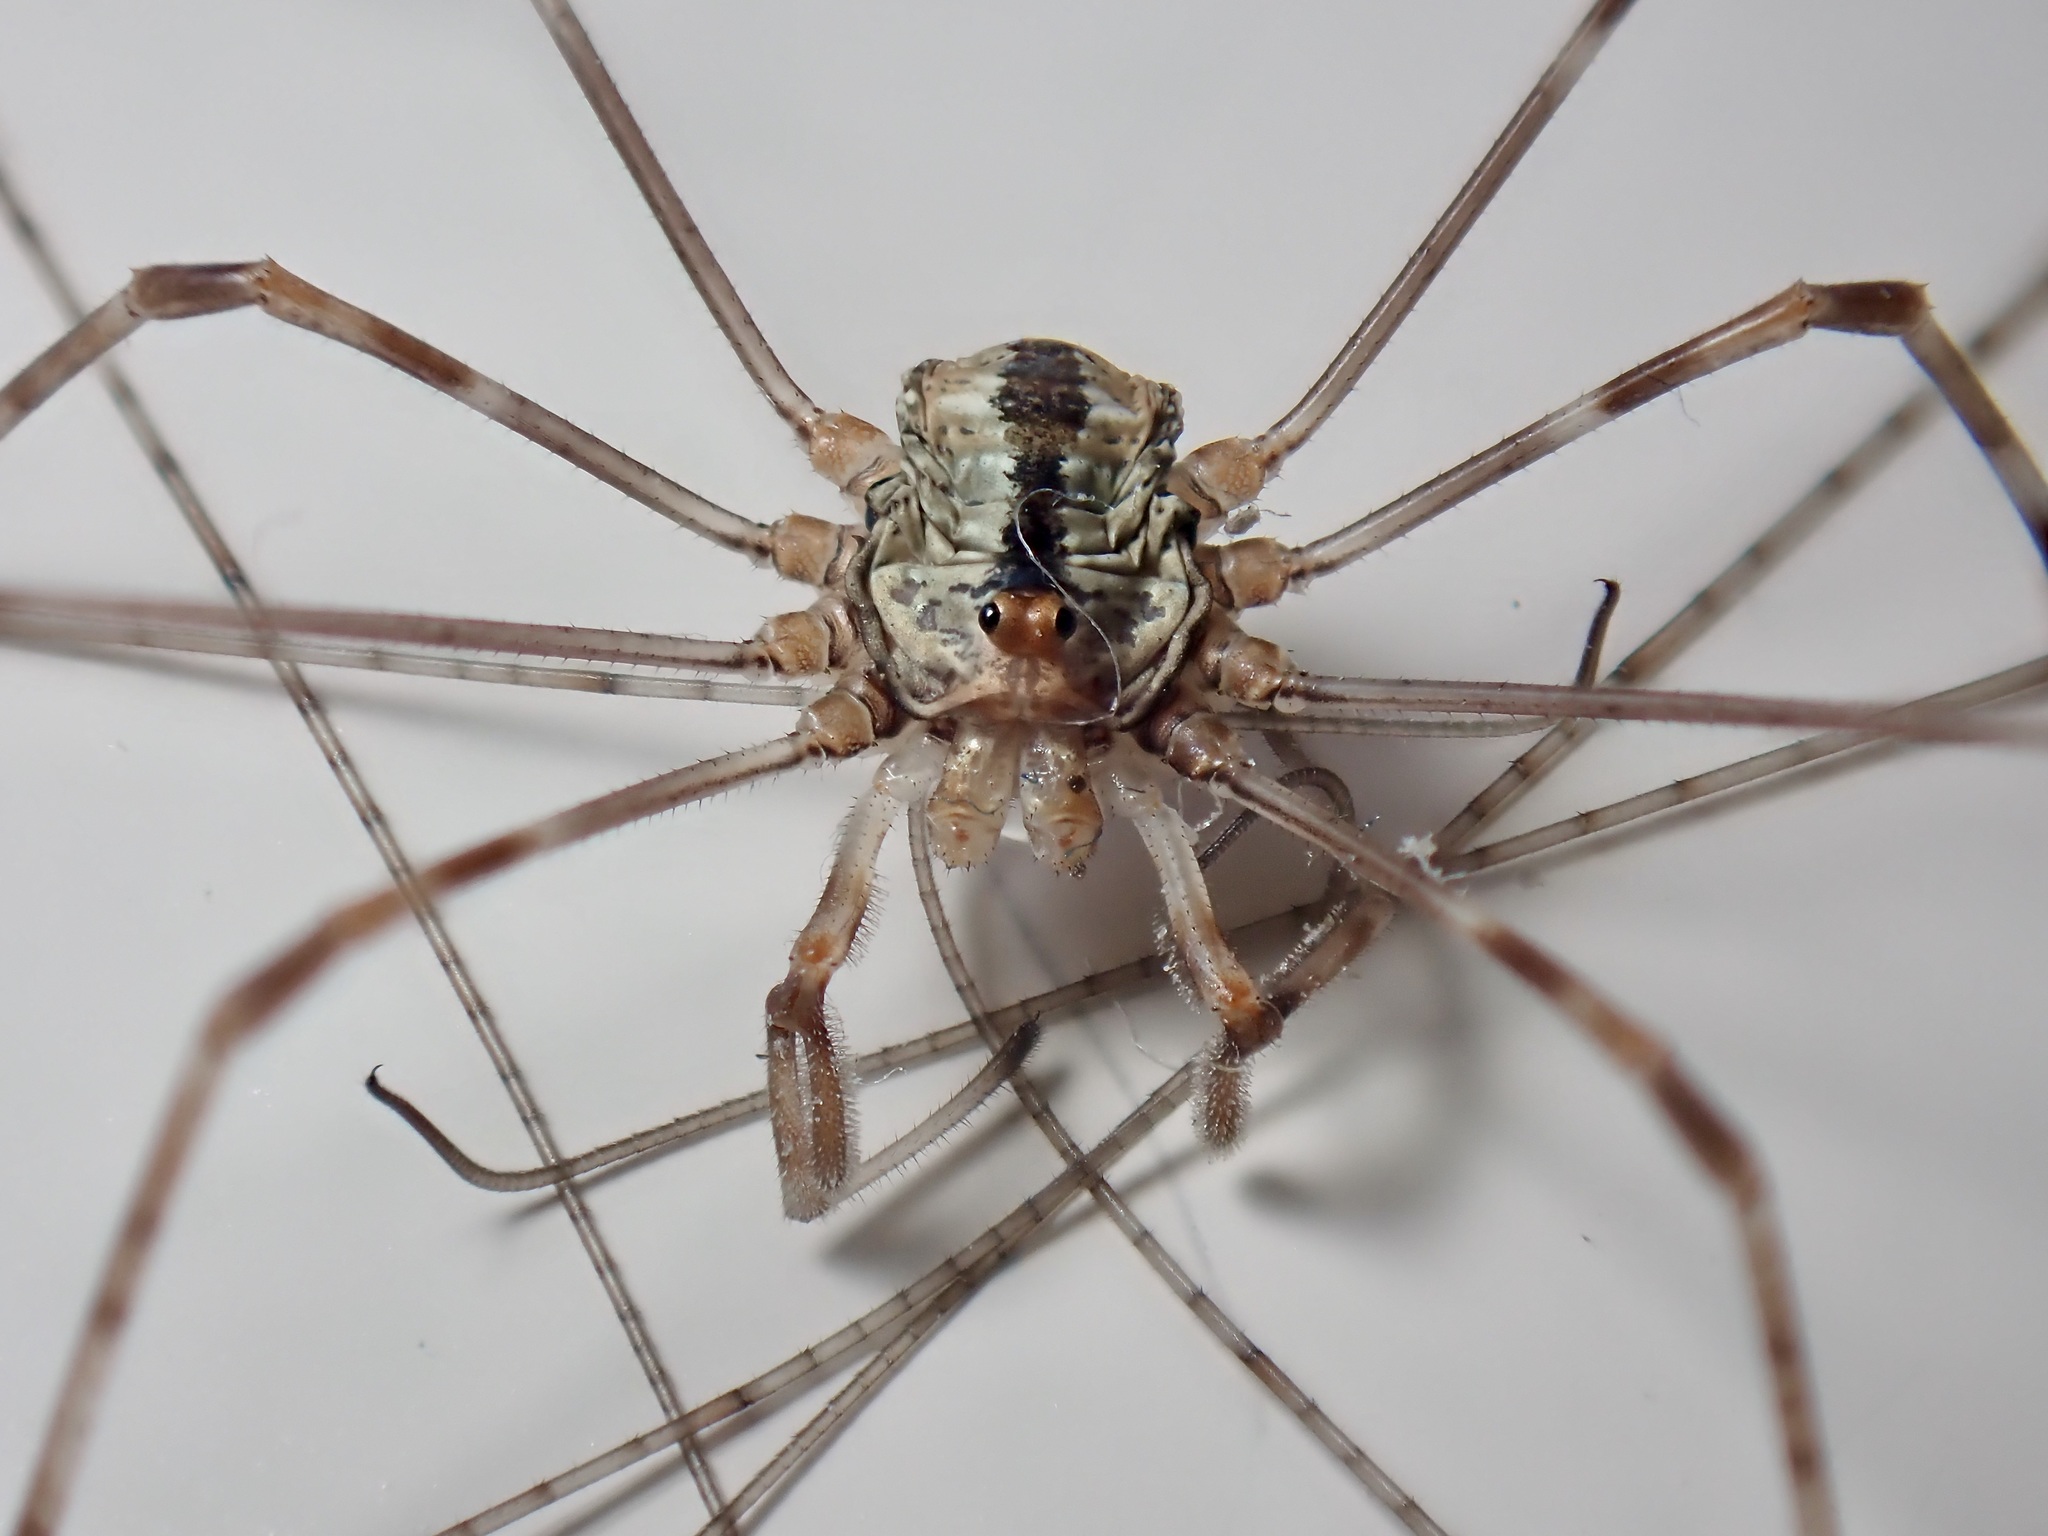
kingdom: Animalia
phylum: Arthropoda
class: Arachnida
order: Opiliones
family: Phalangiidae
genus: Dicranopalpus
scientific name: Dicranopalpus ramosus
